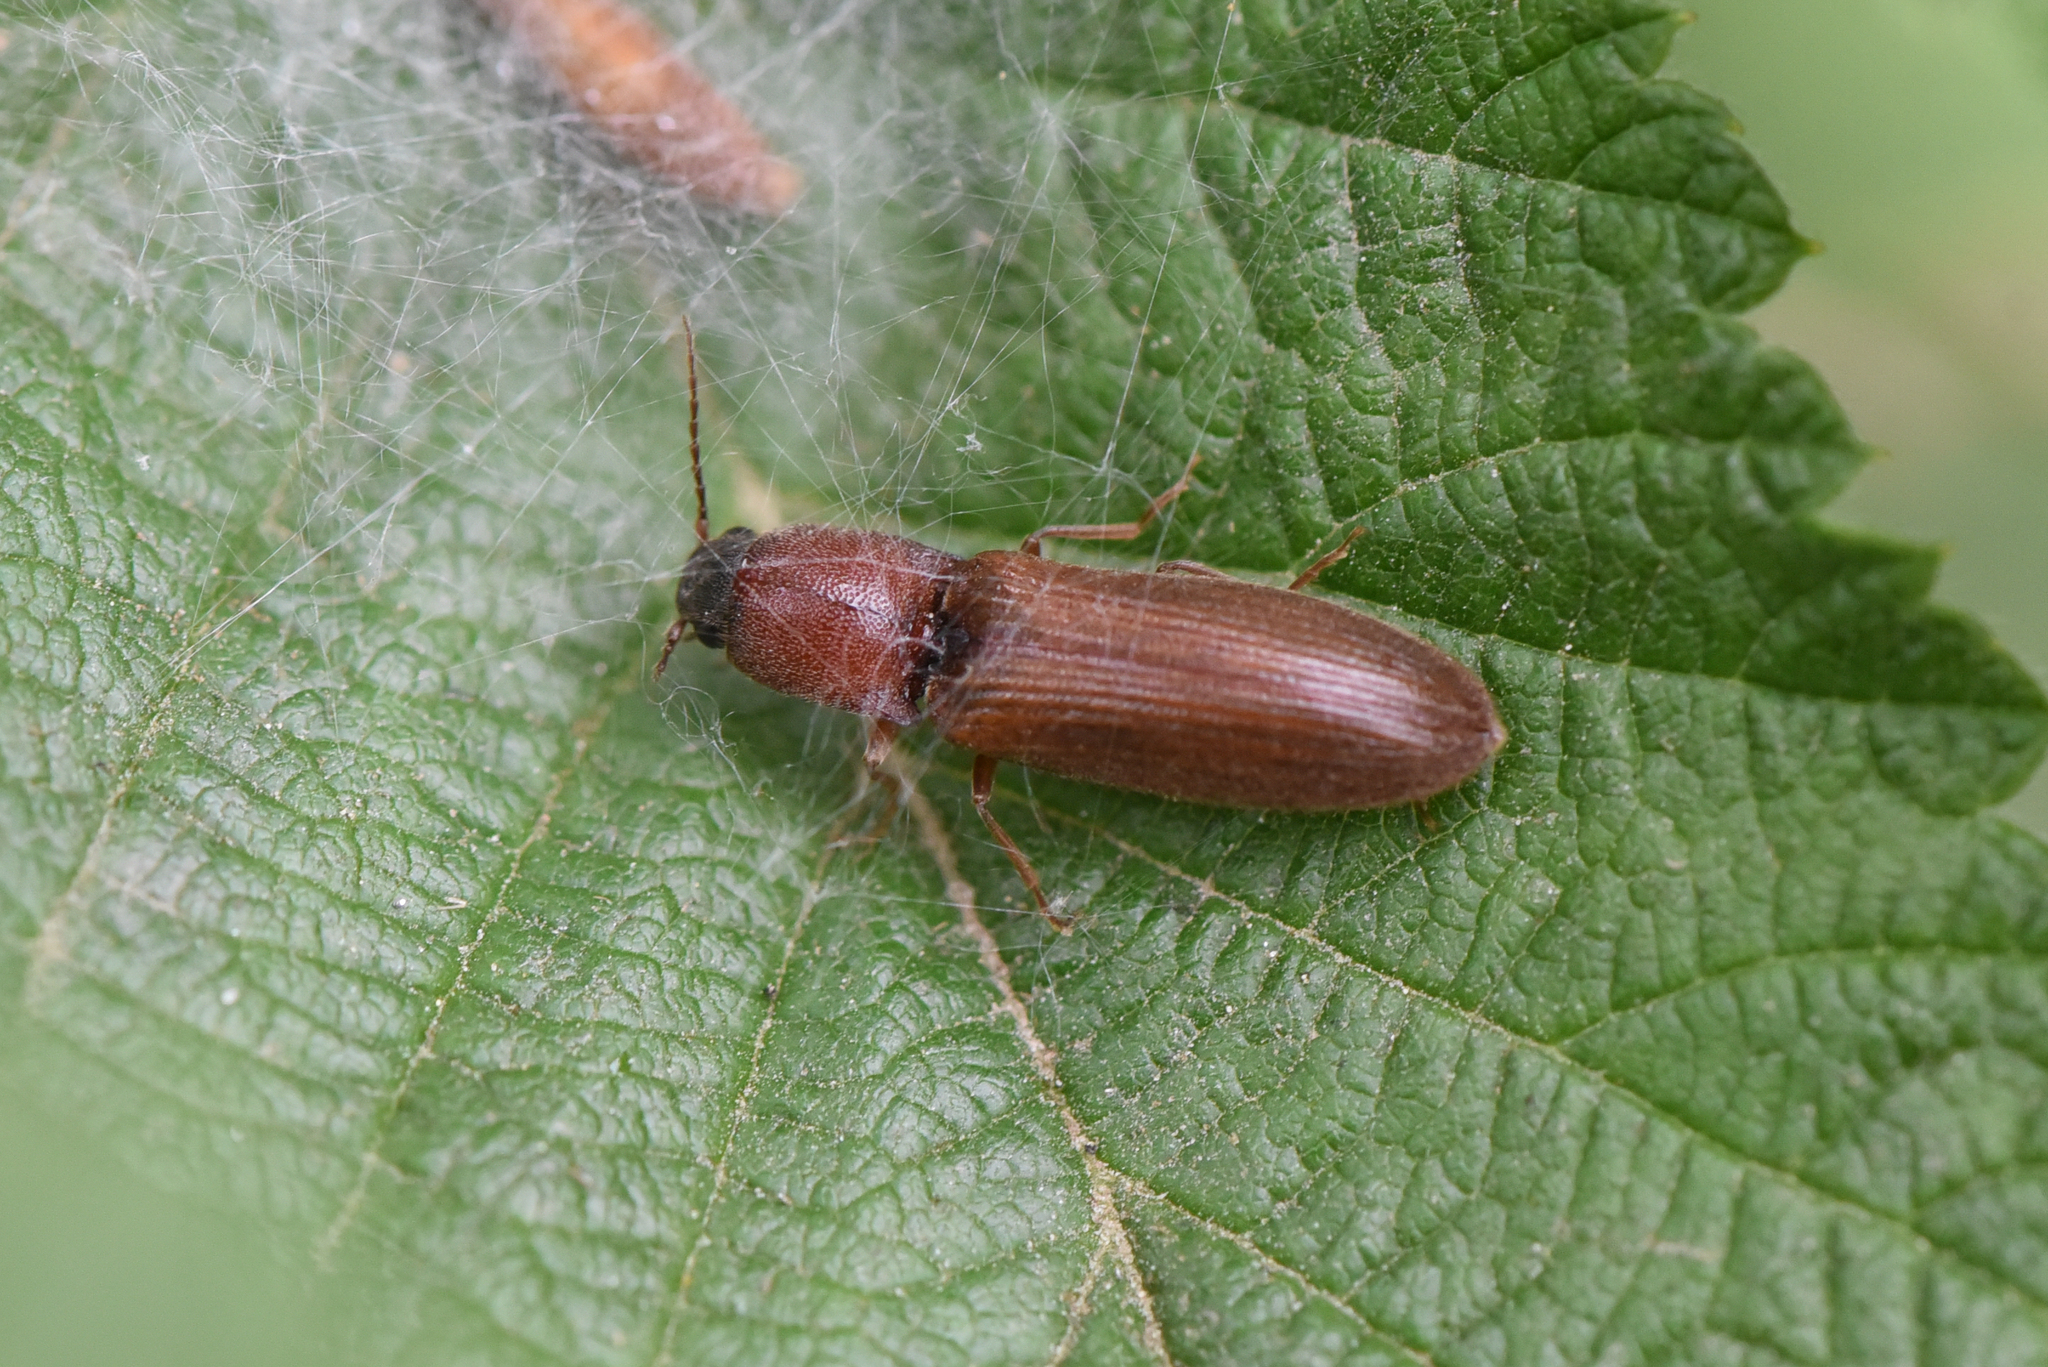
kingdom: Animalia
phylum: Arthropoda
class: Insecta
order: Coleoptera
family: Elateridae
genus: Athous
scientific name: Athous rufiventris
